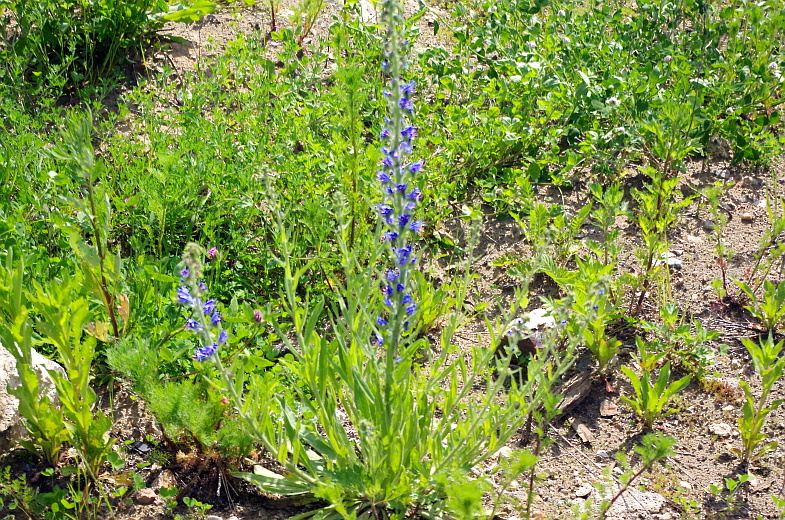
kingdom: Plantae
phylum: Tracheophyta
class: Magnoliopsida
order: Boraginales
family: Boraginaceae
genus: Echium
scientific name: Echium vulgare
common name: Common viper's bugloss
